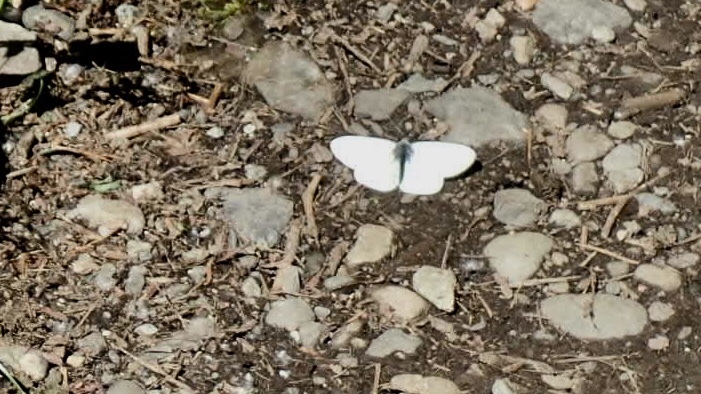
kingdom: Animalia
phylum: Arthropoda
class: Insecta
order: Lepidoptera
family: Pieridae
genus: Pieris
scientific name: Pieris marginalis
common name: Margined white
